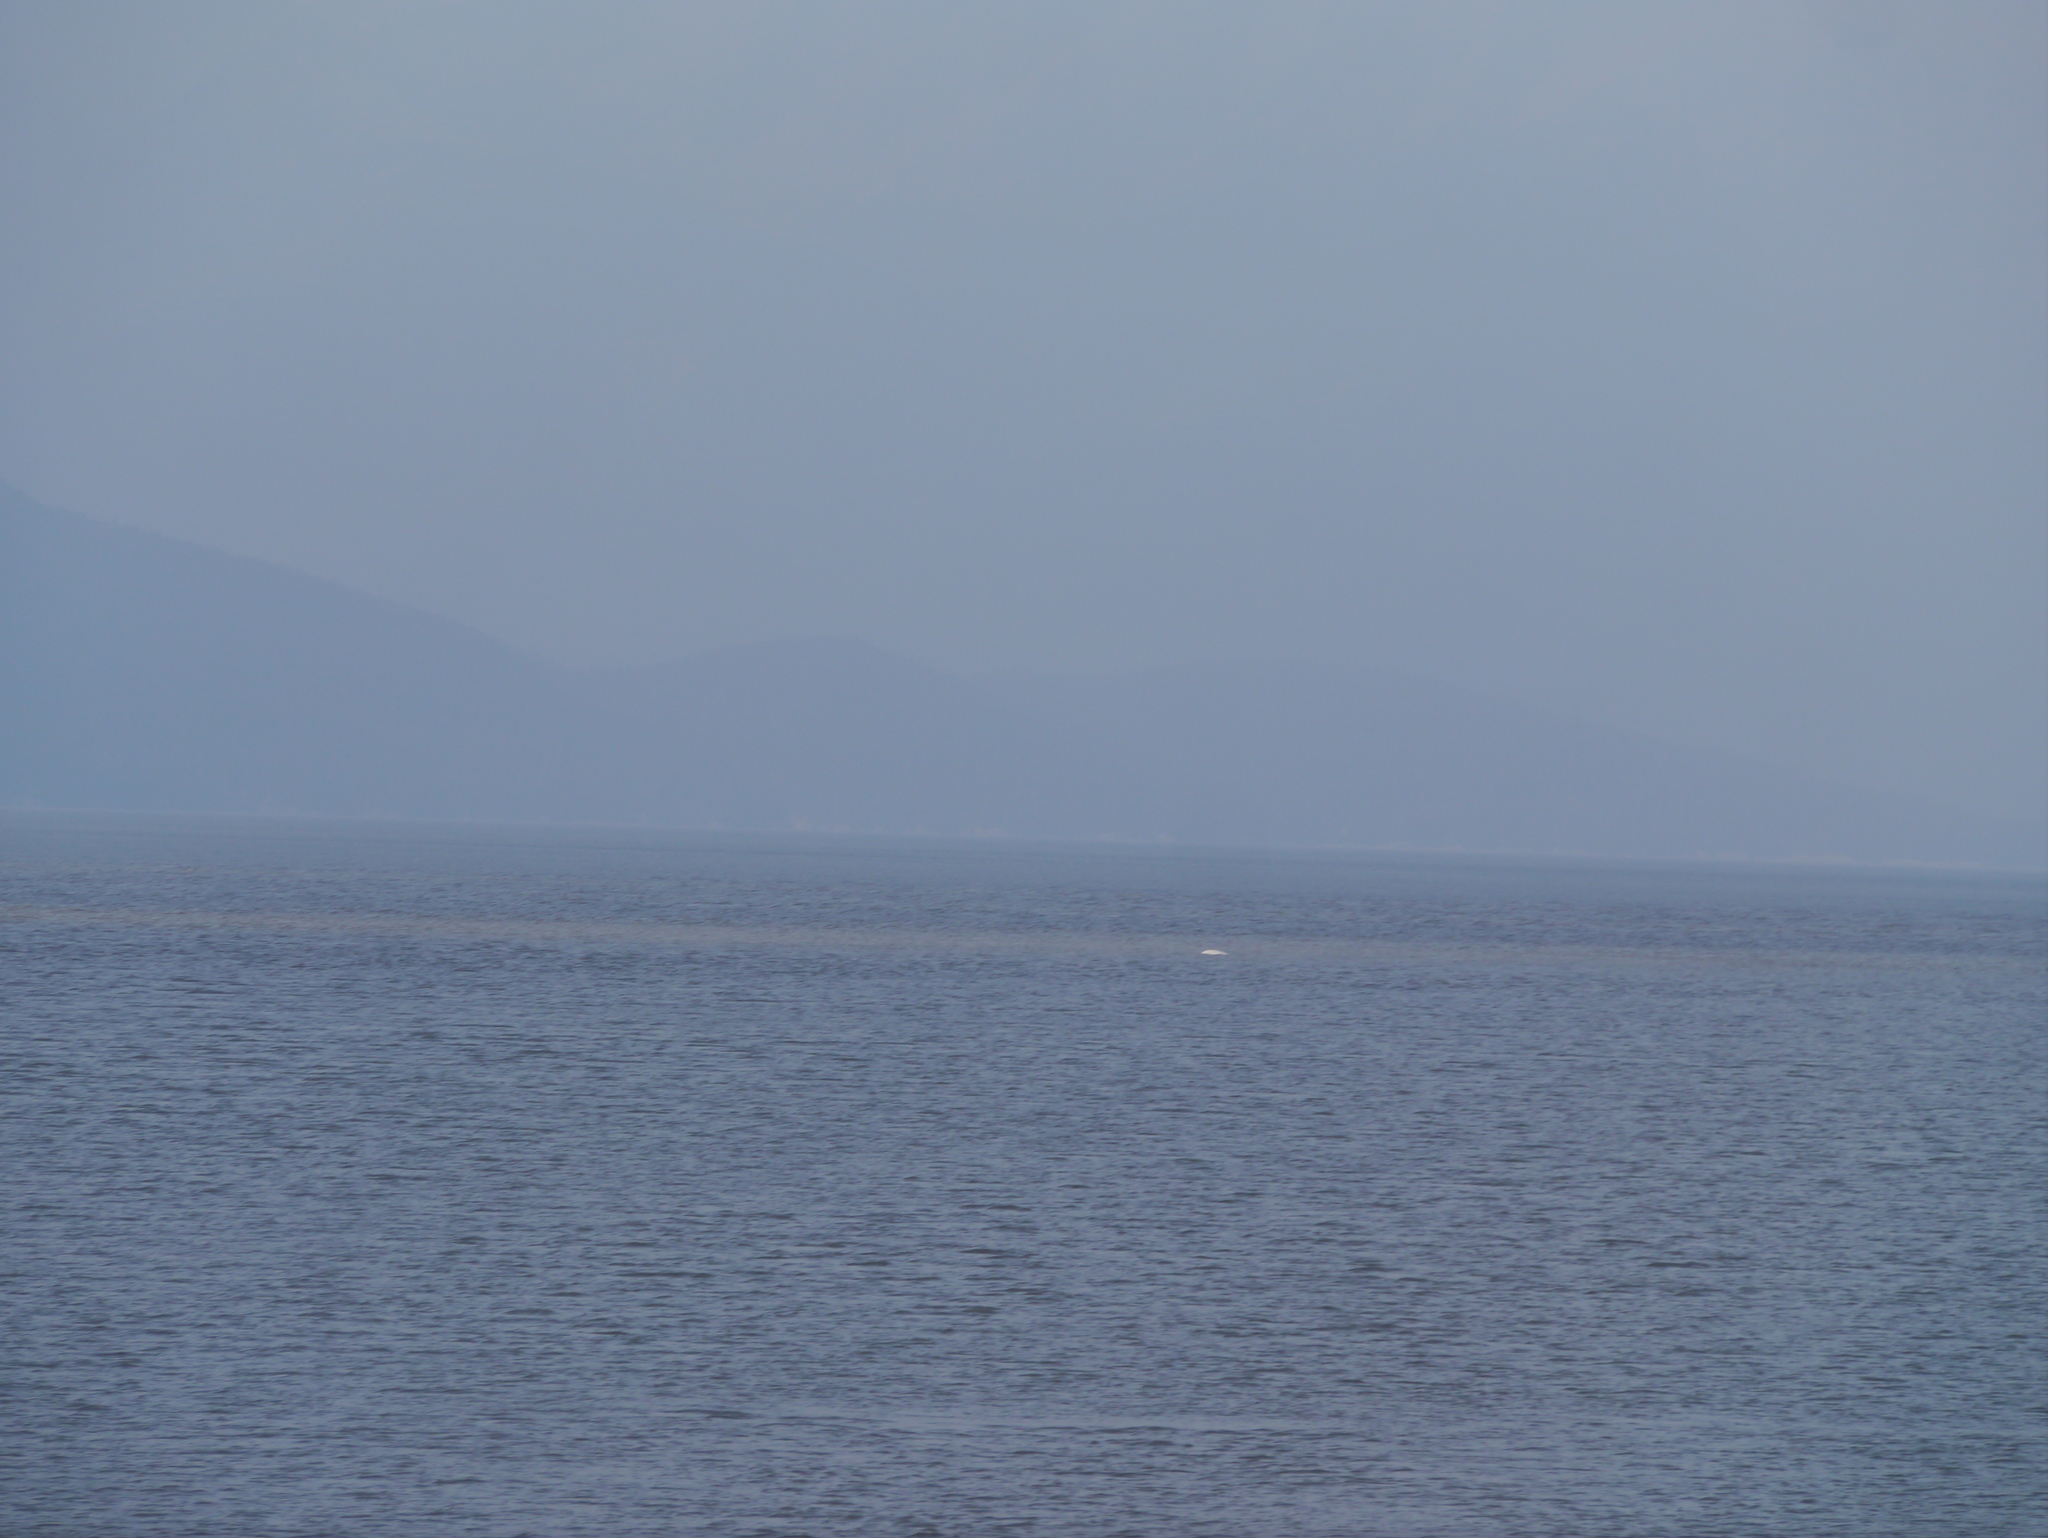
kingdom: Animalia
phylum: Chordata
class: Mammalia
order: Cetacea
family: Monodontidae
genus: Delphinapterus
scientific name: Delphinapterus leucas
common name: Beluga
